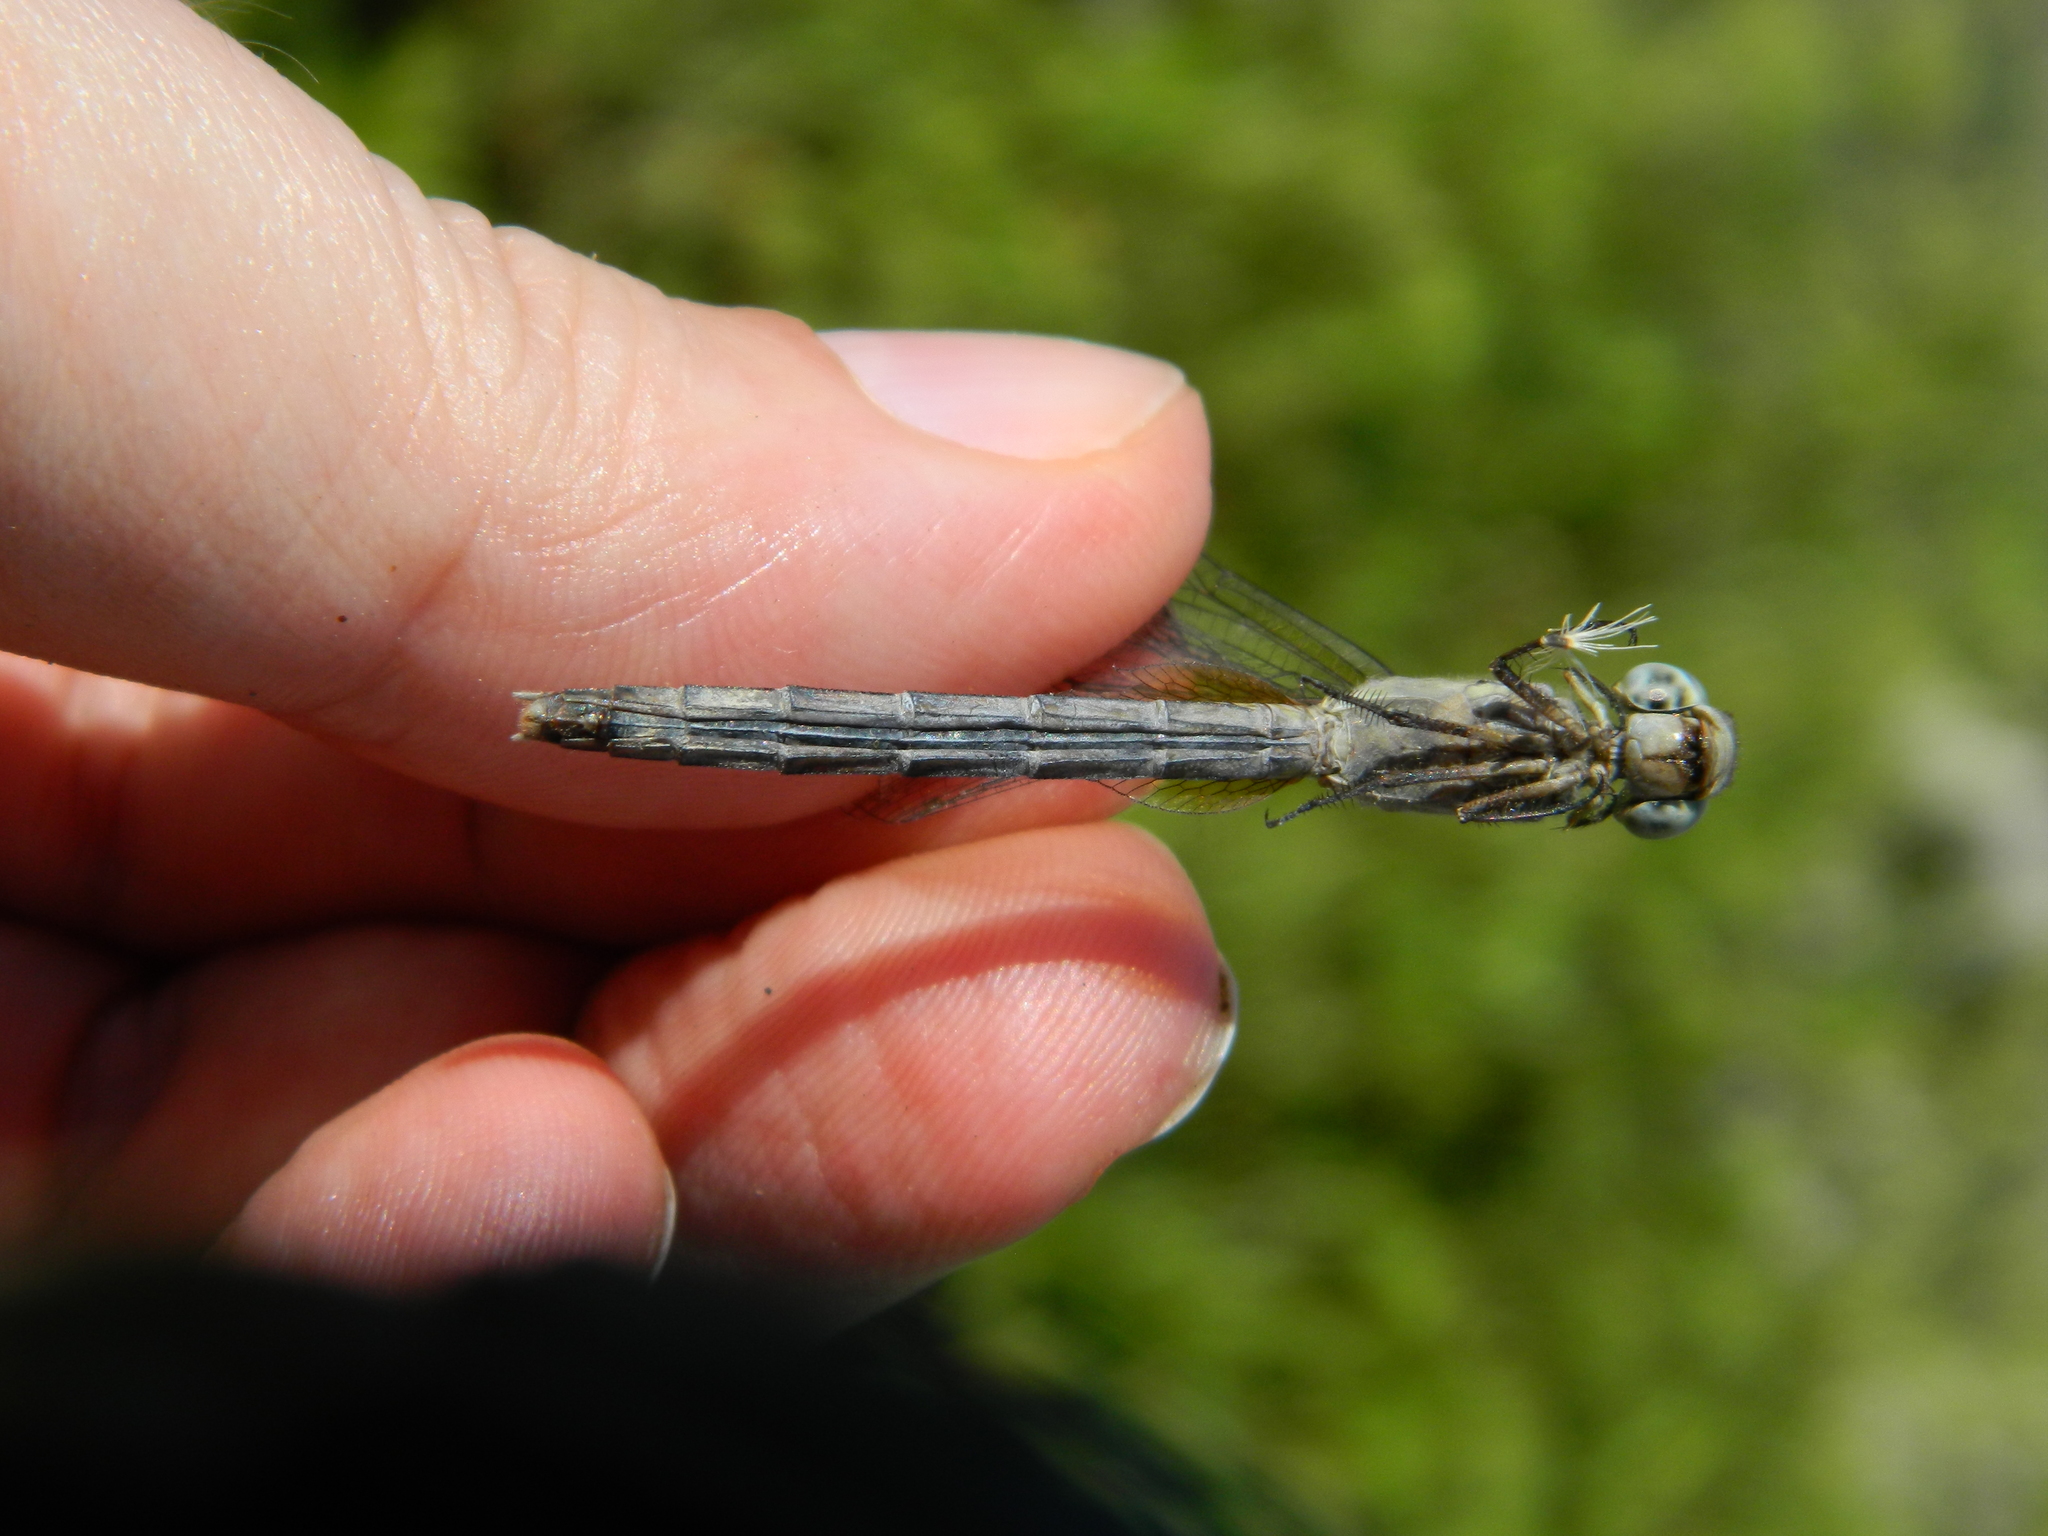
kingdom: Animalia
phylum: Arthropoda
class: Insecta
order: Odonata
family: Libellulidae
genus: Erythrodiplax
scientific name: Erythrodiplax umbrata
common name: Band-winged dragonlet
